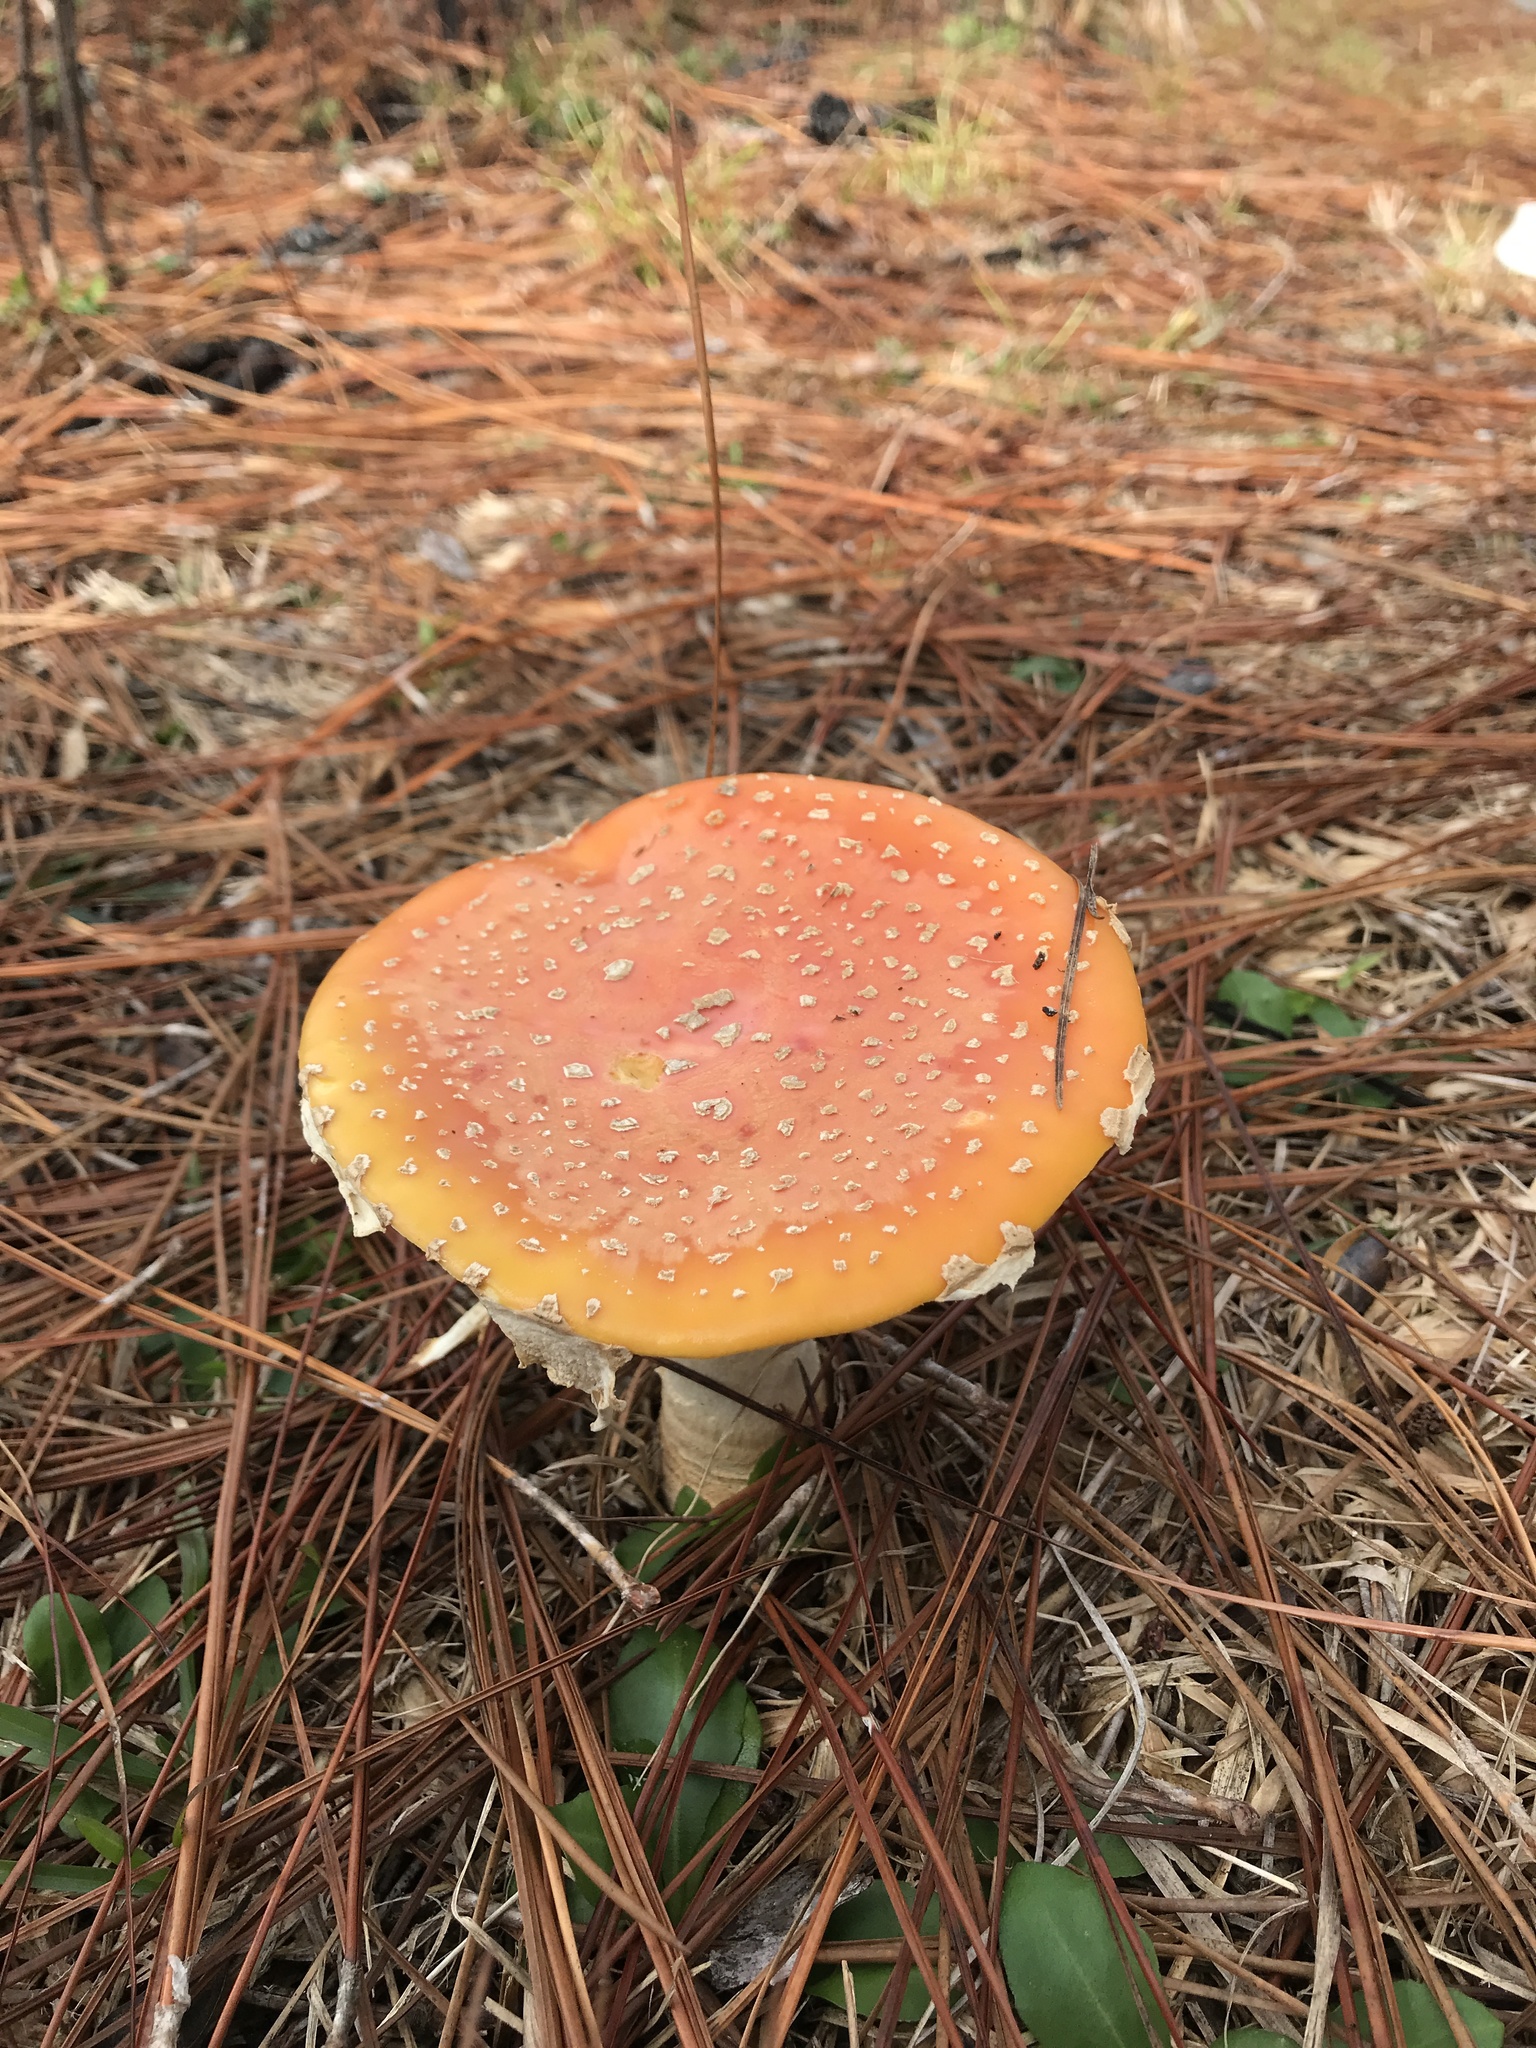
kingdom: Fungi
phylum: Basidiomycota
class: Agaricomycetes
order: Agaricales
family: Amanitaceae
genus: Amanita
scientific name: Amanita persicina
